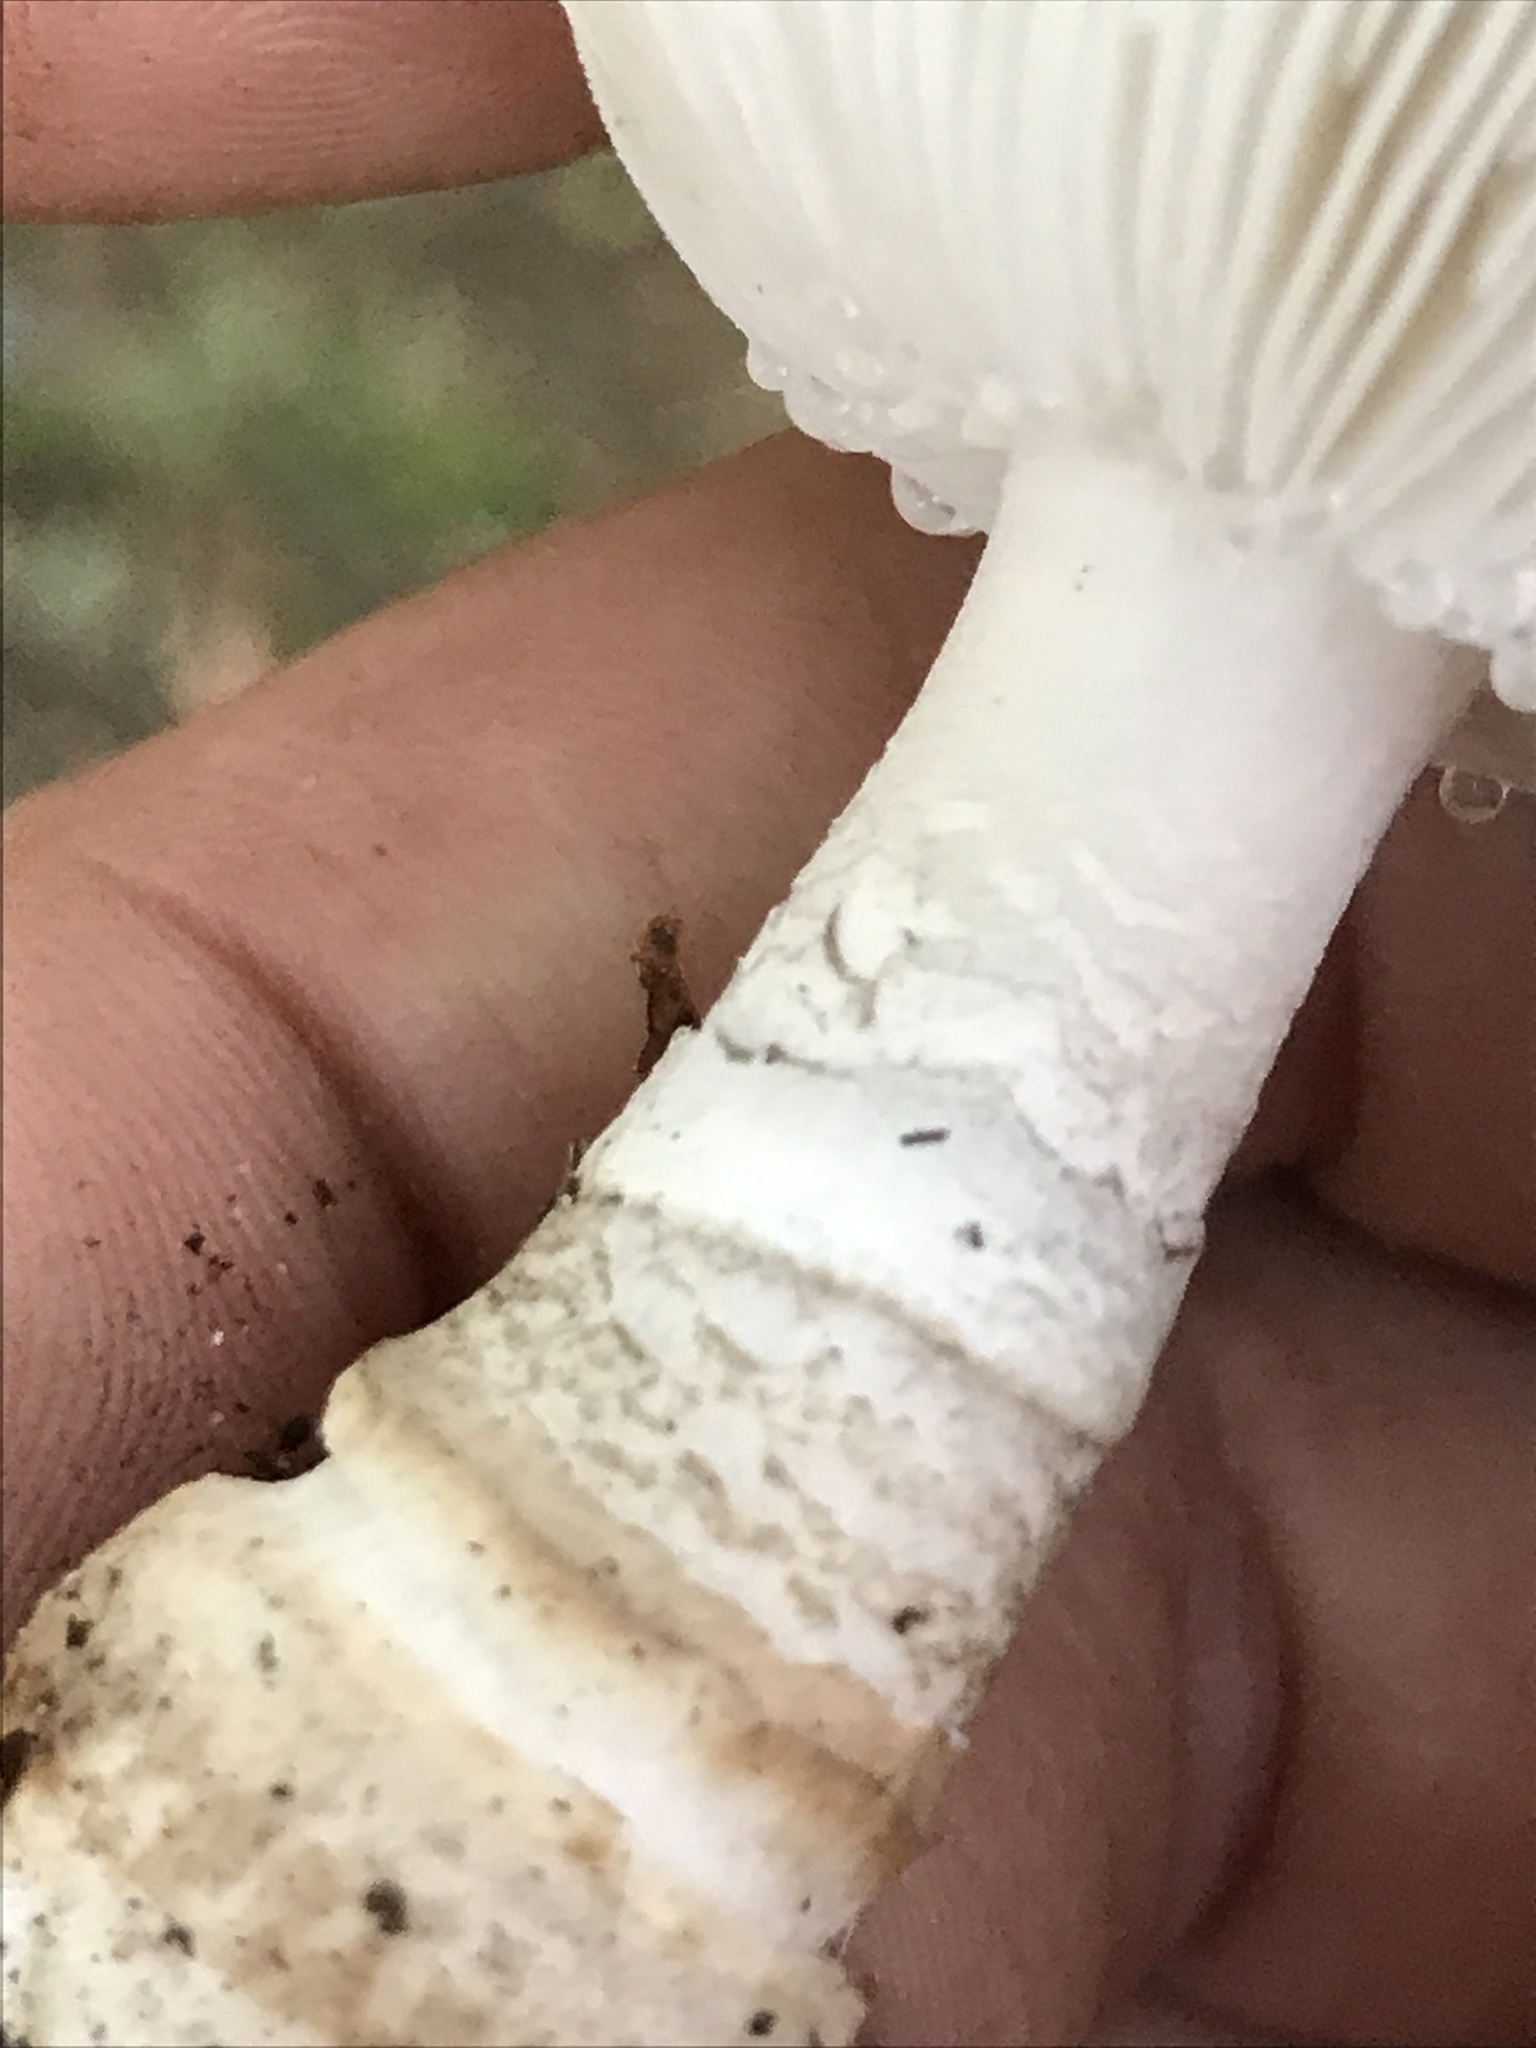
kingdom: Fungi
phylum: Basidiomycota
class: Agaricomycetes
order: Agaricales
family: Amanitaceae
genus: Amanita
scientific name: Amanita rubescens
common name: Blusher
